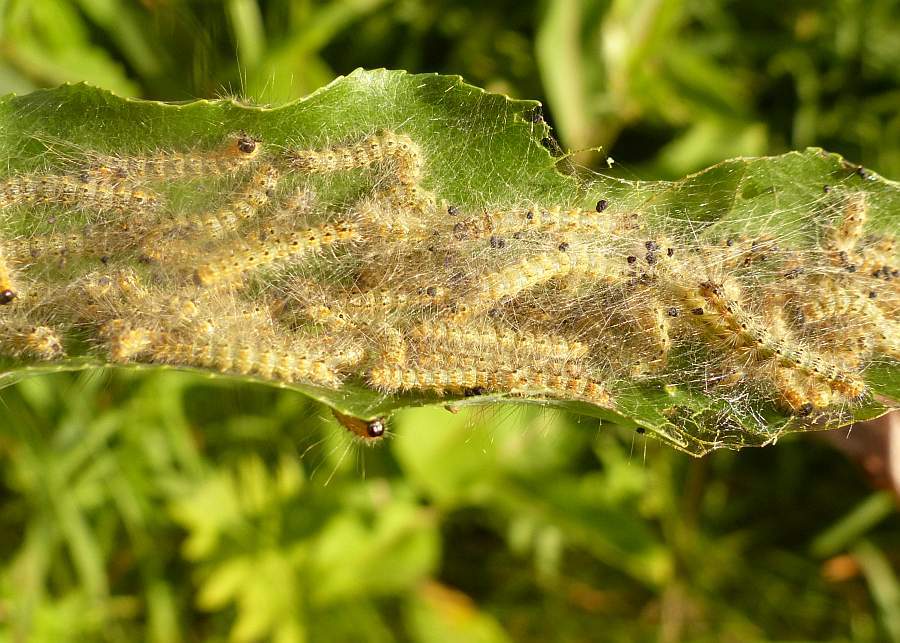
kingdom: Animalia
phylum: Arthropoda
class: Insecta
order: Lepidoptera
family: Erebidae
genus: Hyphantria
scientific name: Hyphantria cunea
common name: American white moth
